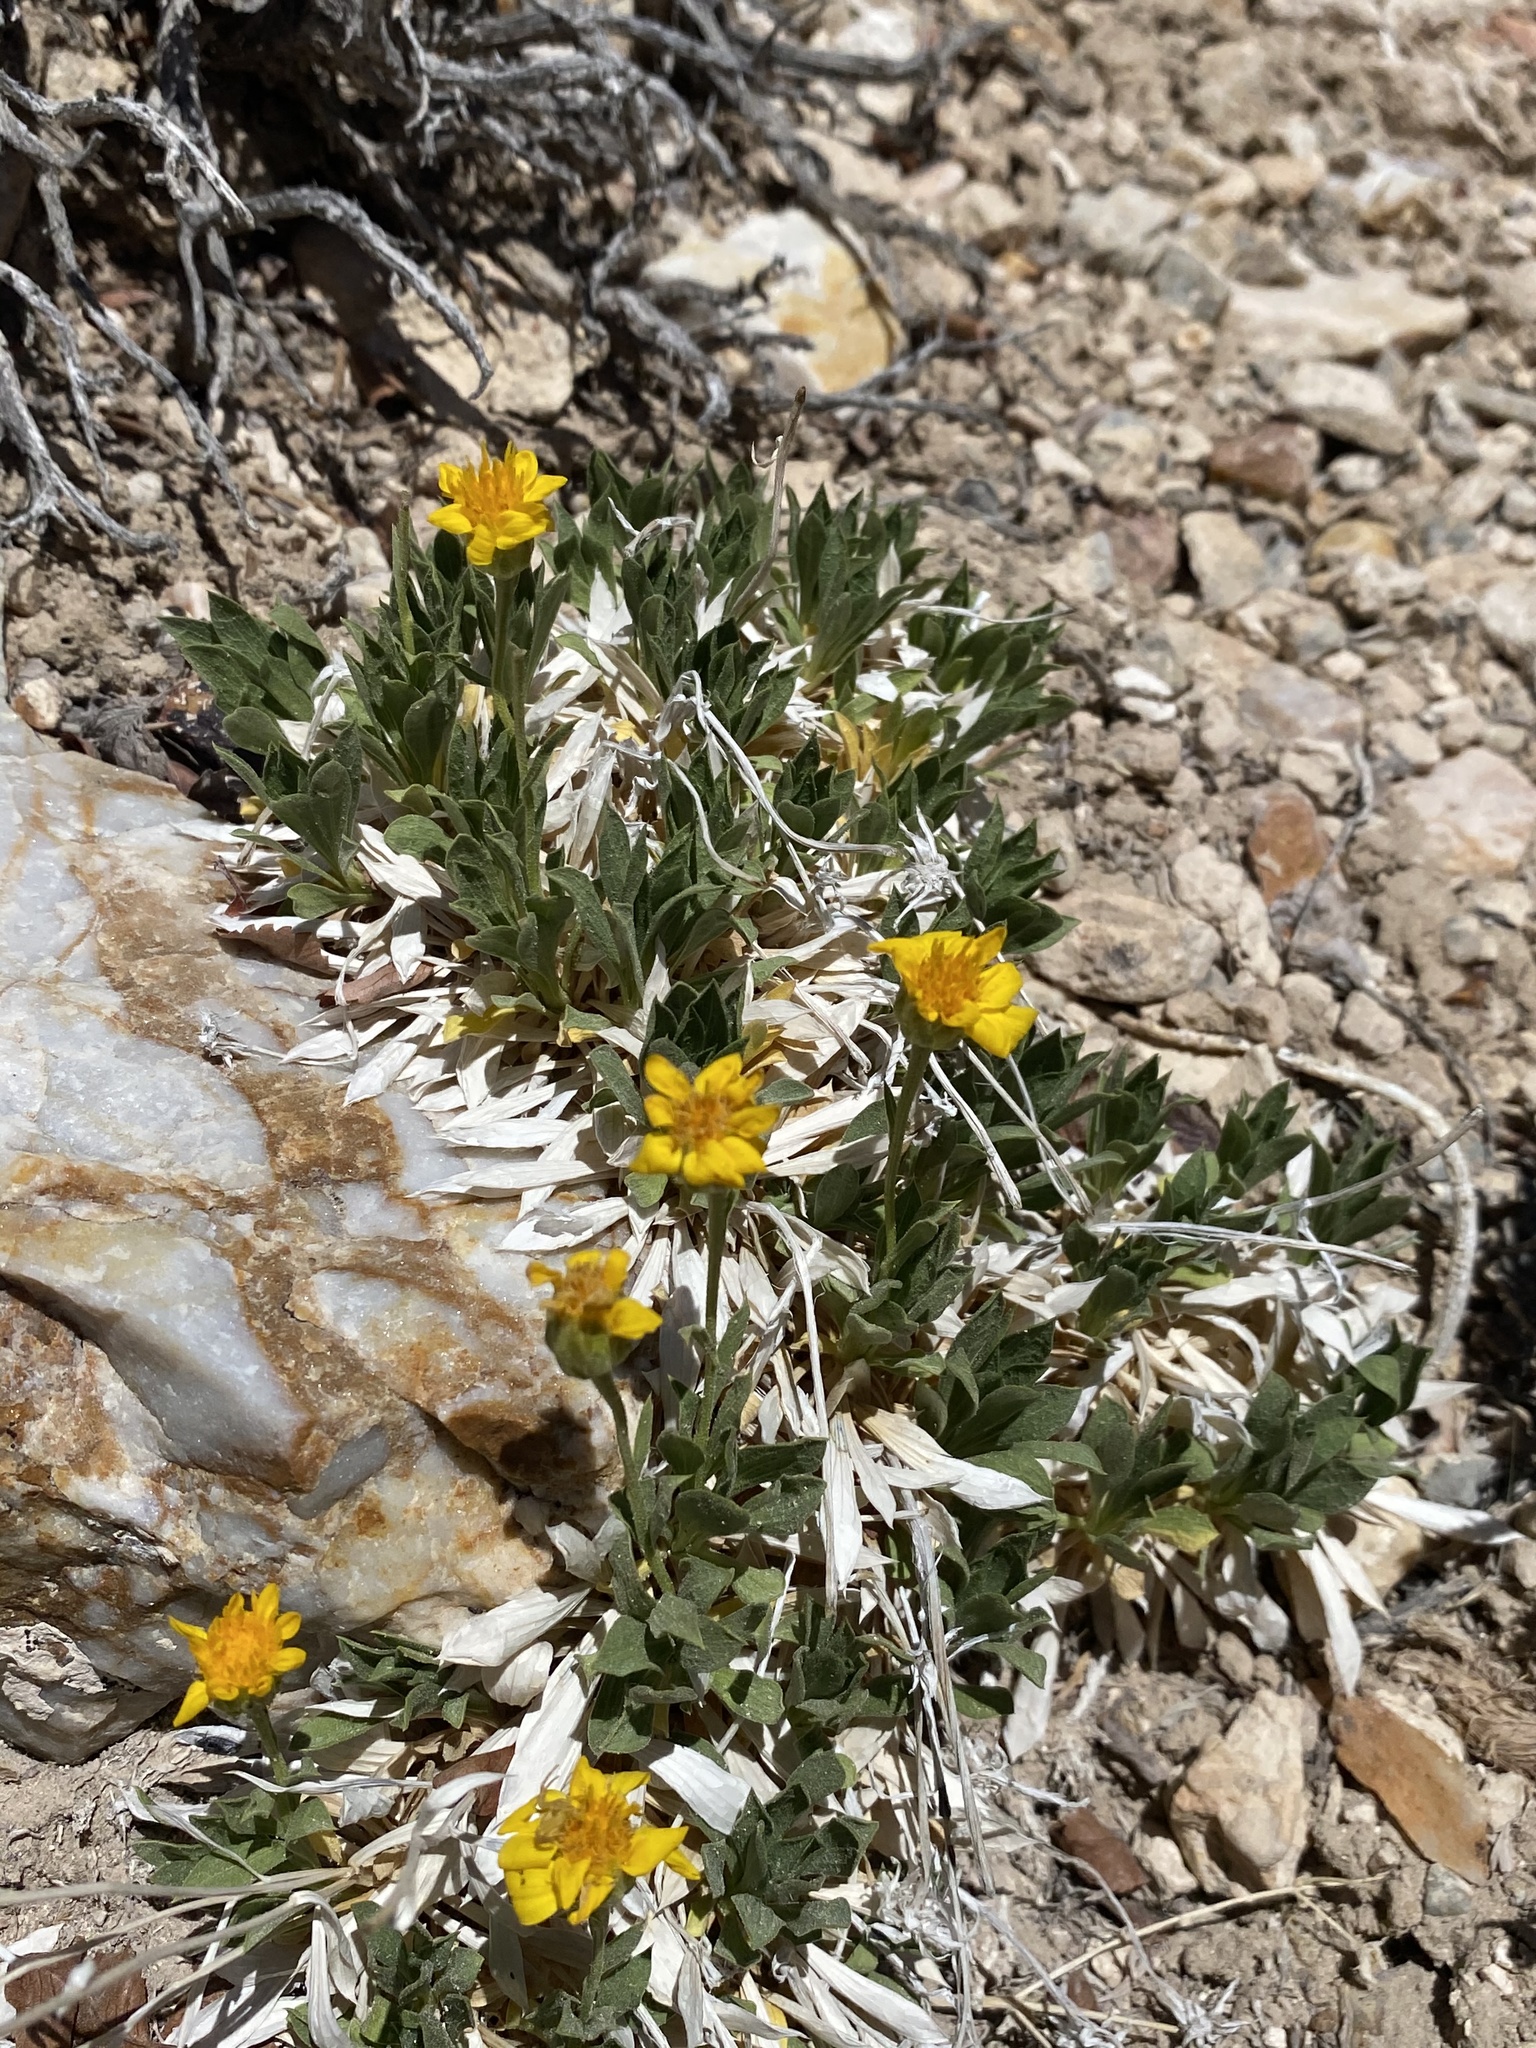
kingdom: Plantae
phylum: Tracheophyta
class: Magnoliopsida
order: Asterales
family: Asteraceae
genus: Stenotus
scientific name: Stenotus acaulis
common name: Stemless goldenweed
